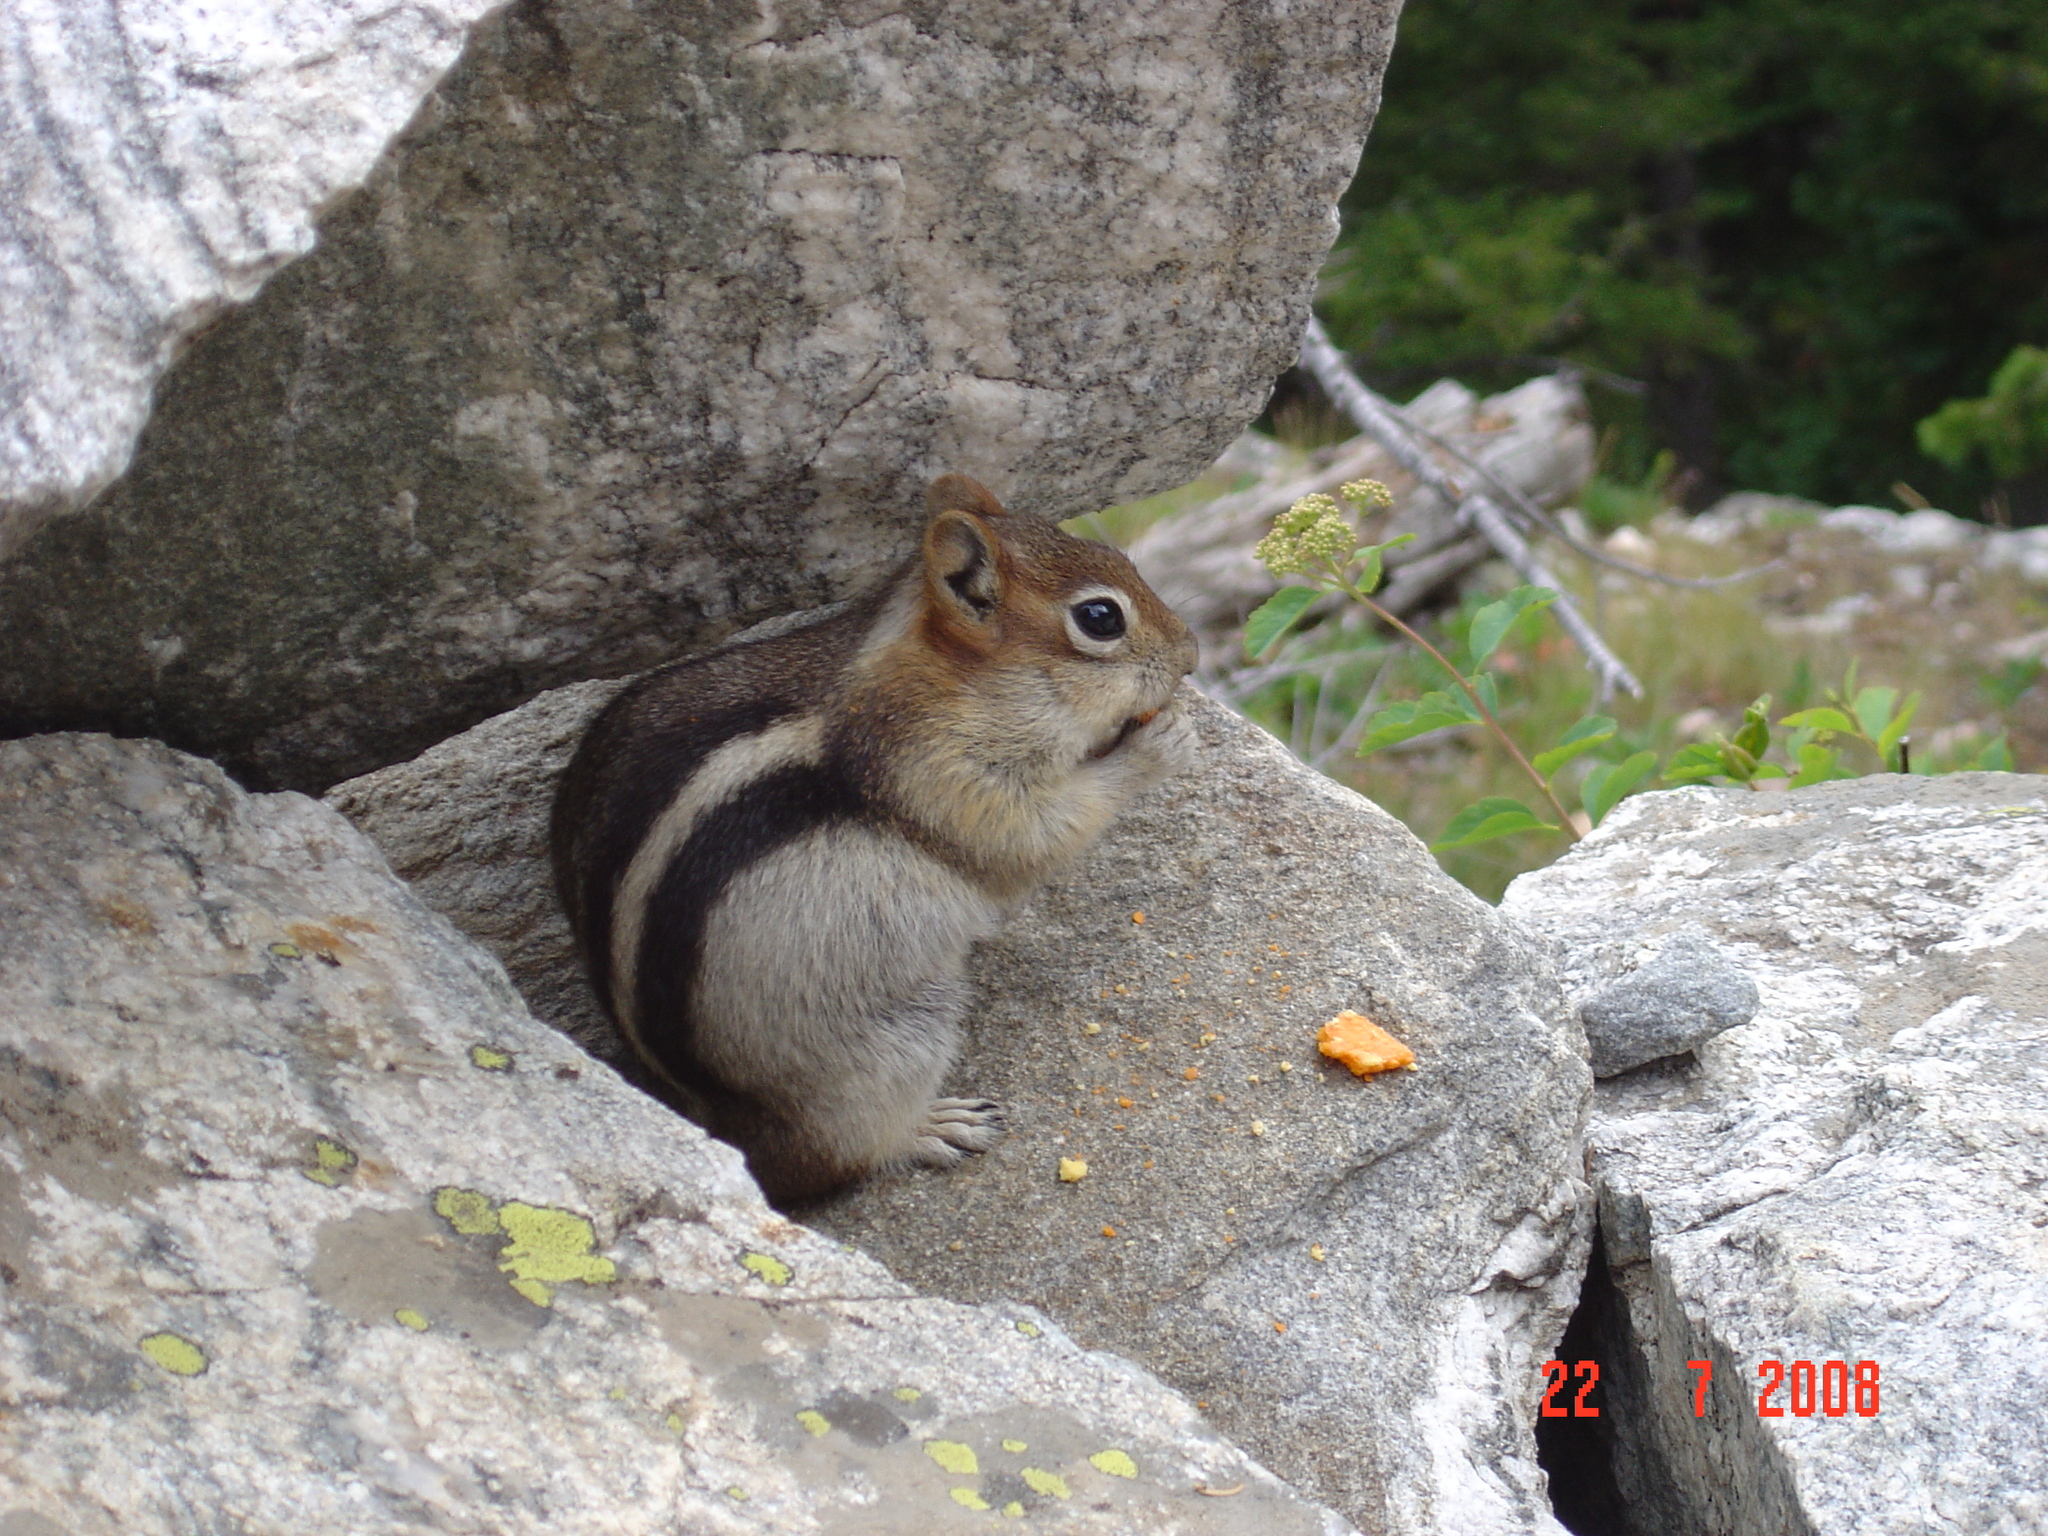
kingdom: Animalia
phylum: Chordata
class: Mammalia
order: Rodentia
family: Sciuridae
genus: Callospermophilus
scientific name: Callospermophilus lateralis
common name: Golden-mantled ground squirrel
